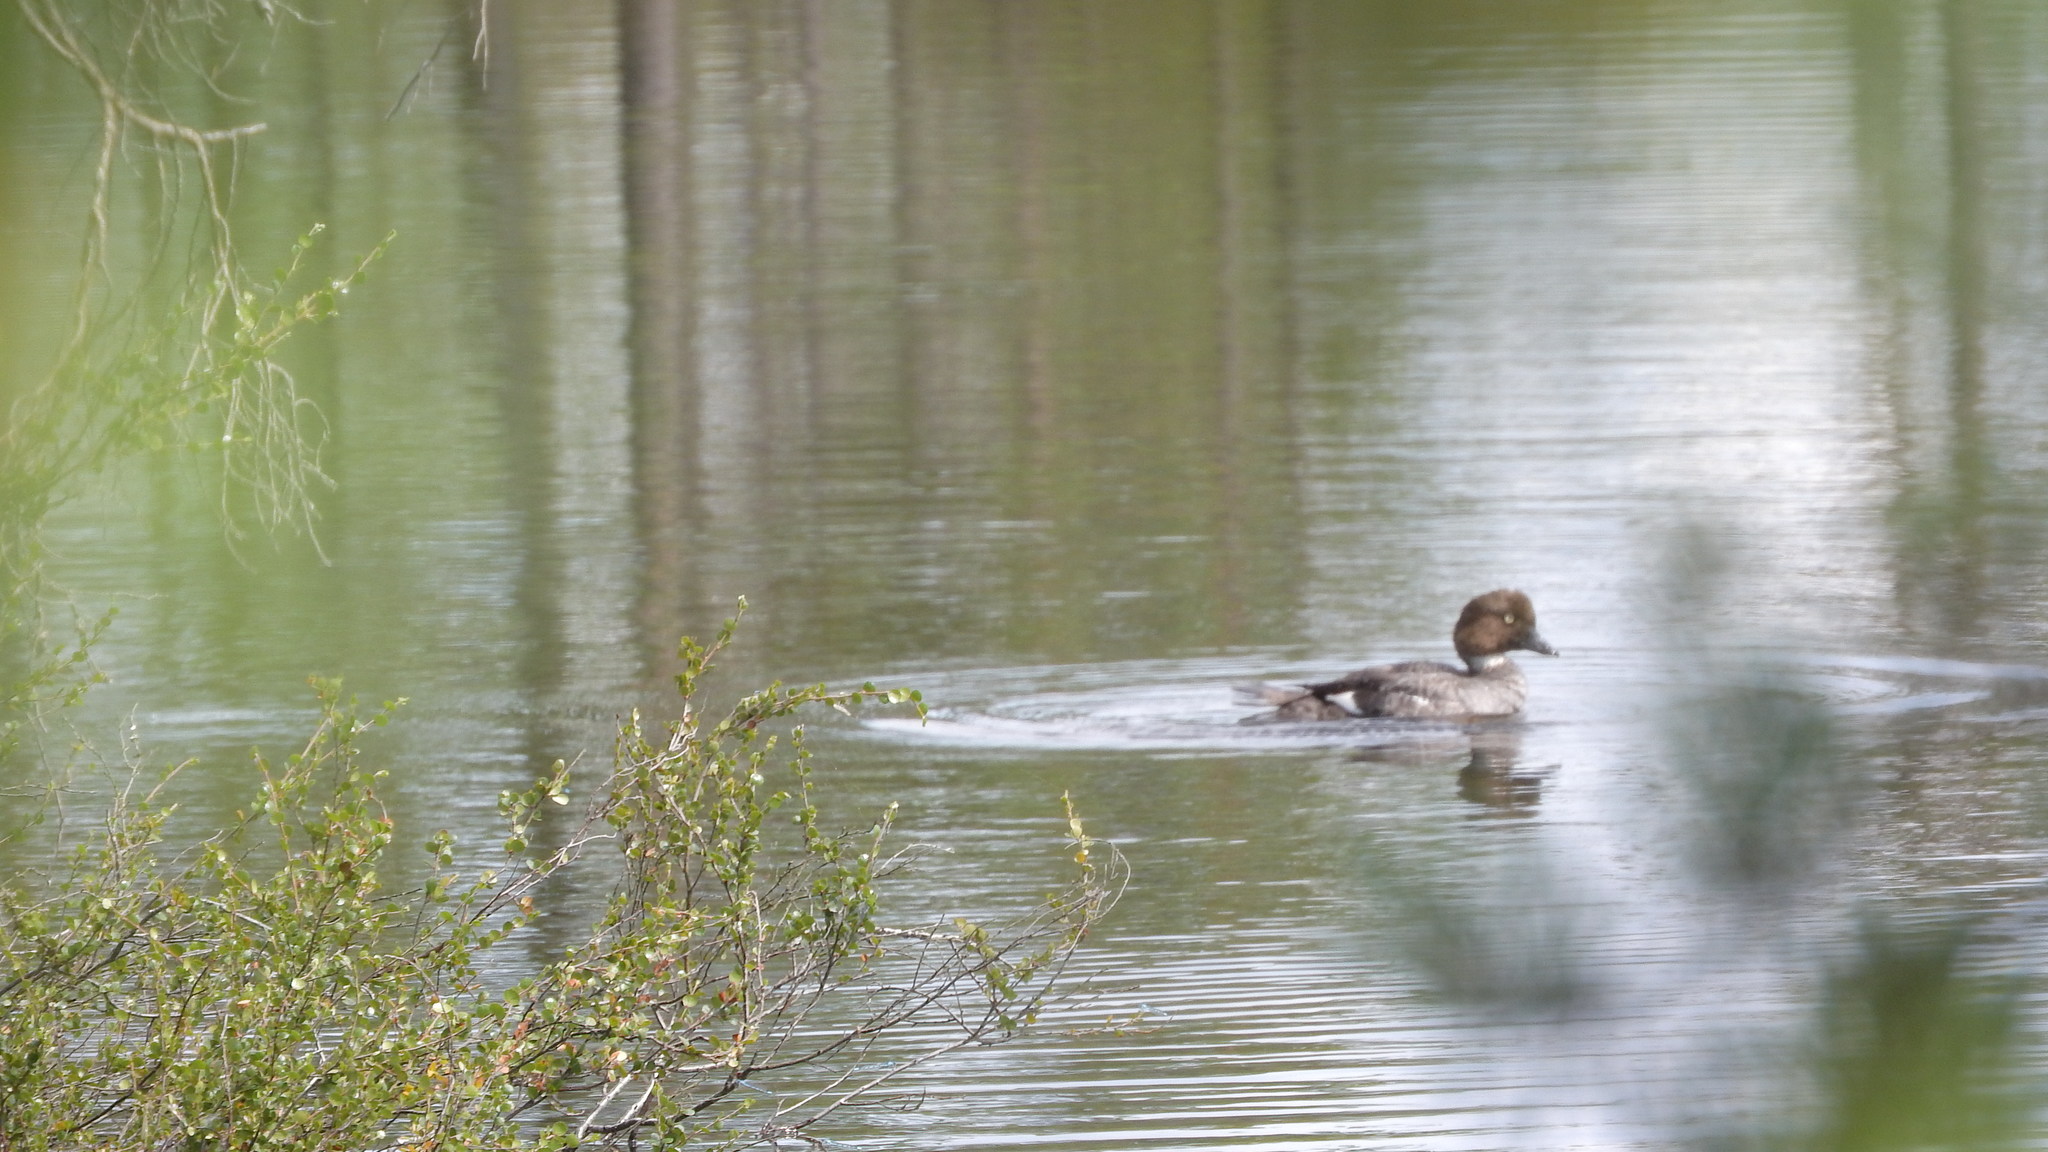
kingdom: Animalia
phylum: Chordata
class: Aves
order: Anseriformes
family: Anatidae
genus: Bucephala
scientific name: Bucephala clangula
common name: Common goldeneye
